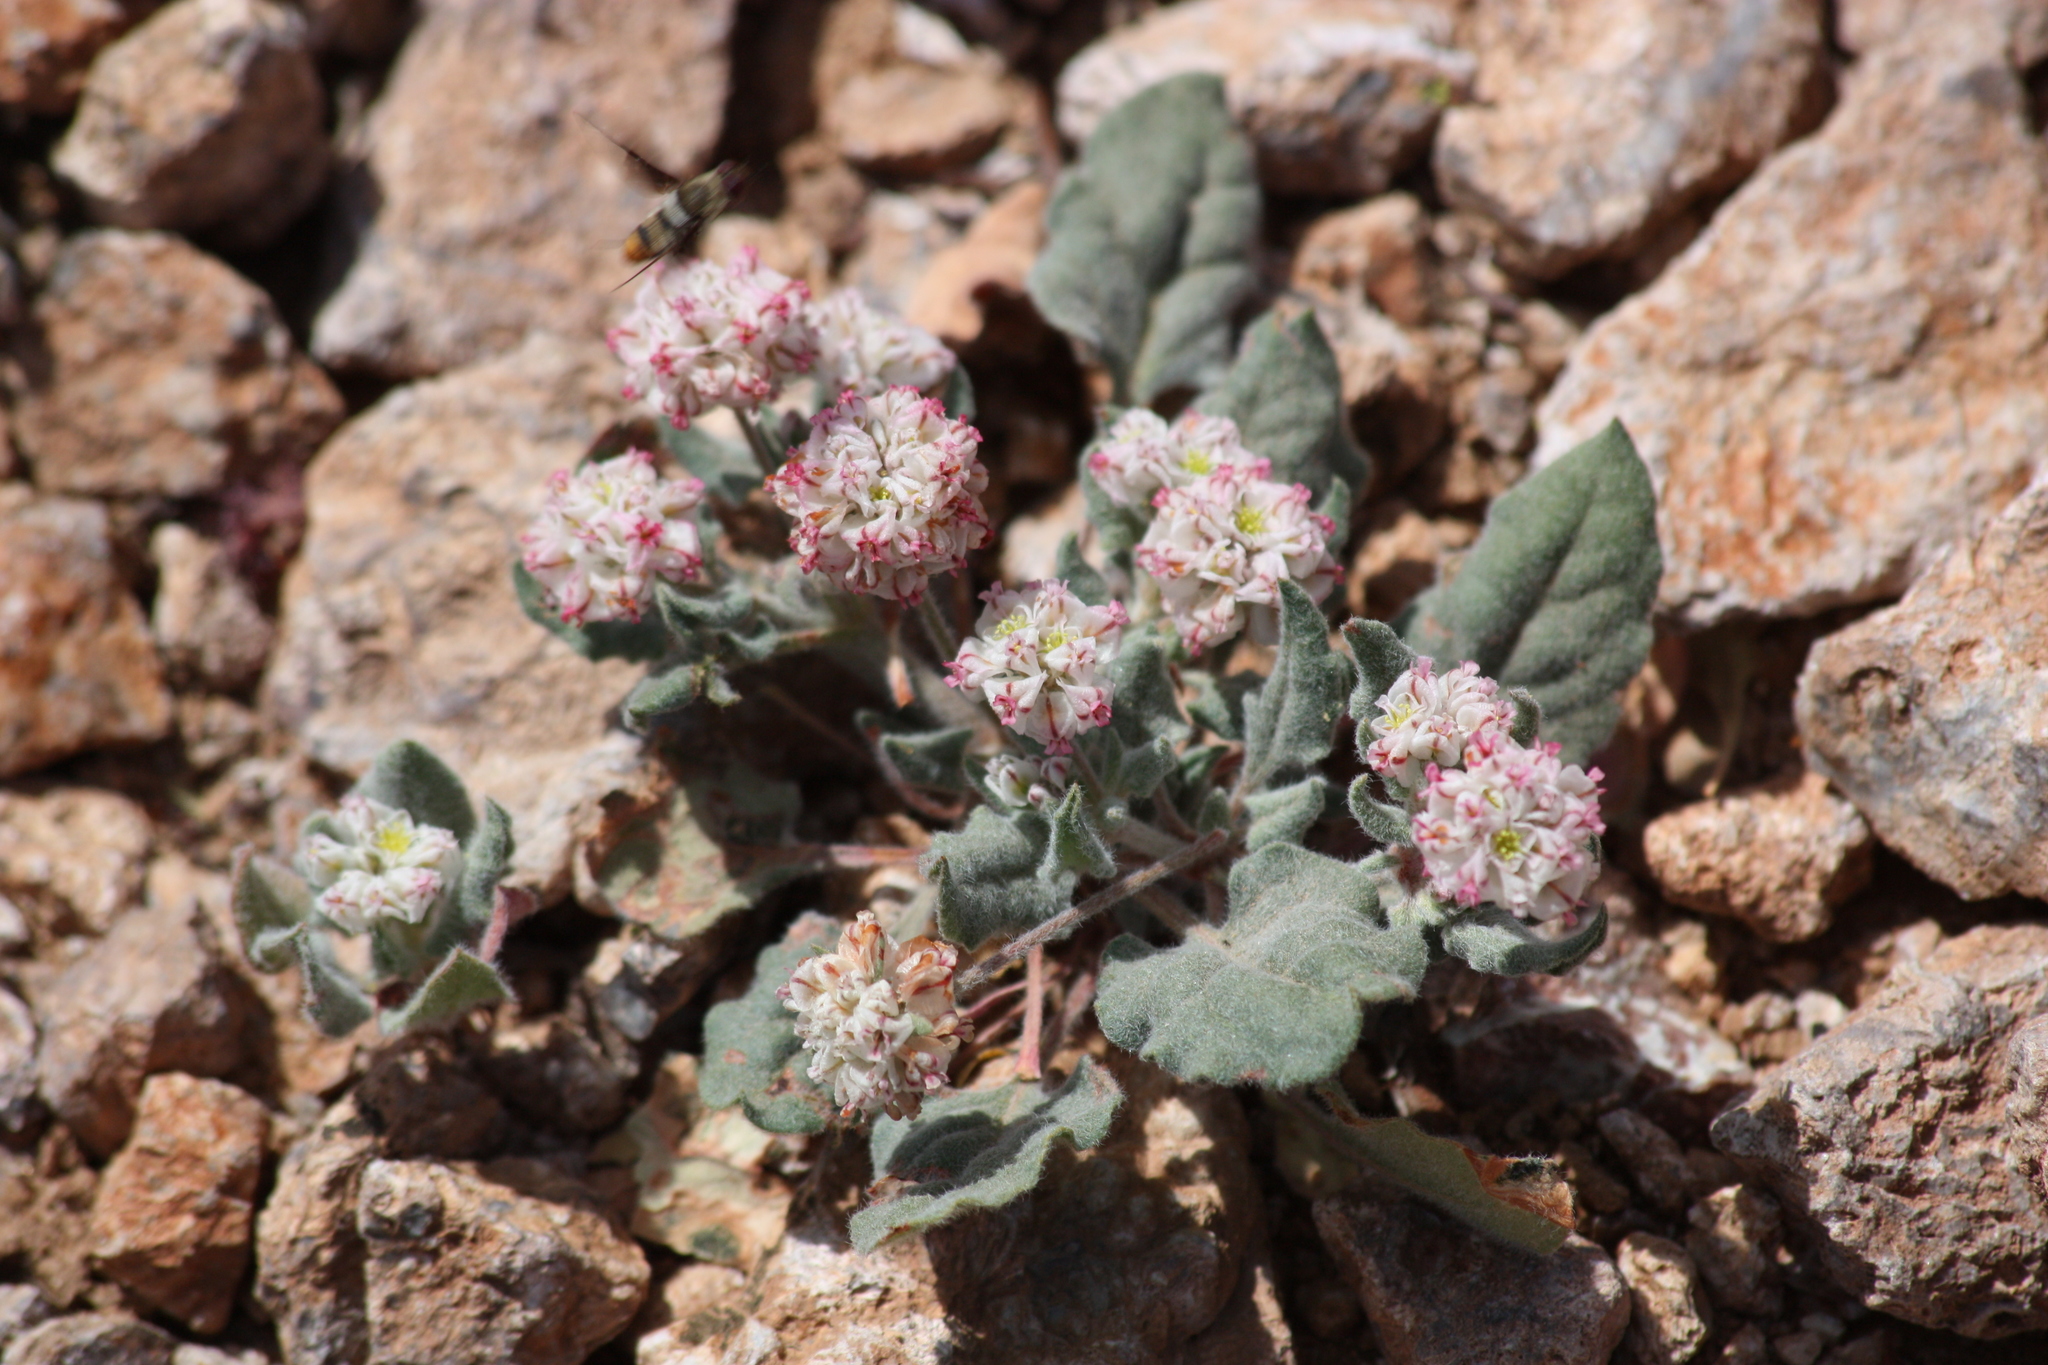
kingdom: Plantae
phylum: Tracheophyta
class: Magnoliopsida
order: Caryophyllales
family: Polygonaceae
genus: Eriogonum
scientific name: Eriogonum abertianum
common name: Abert's wild buckwheat
